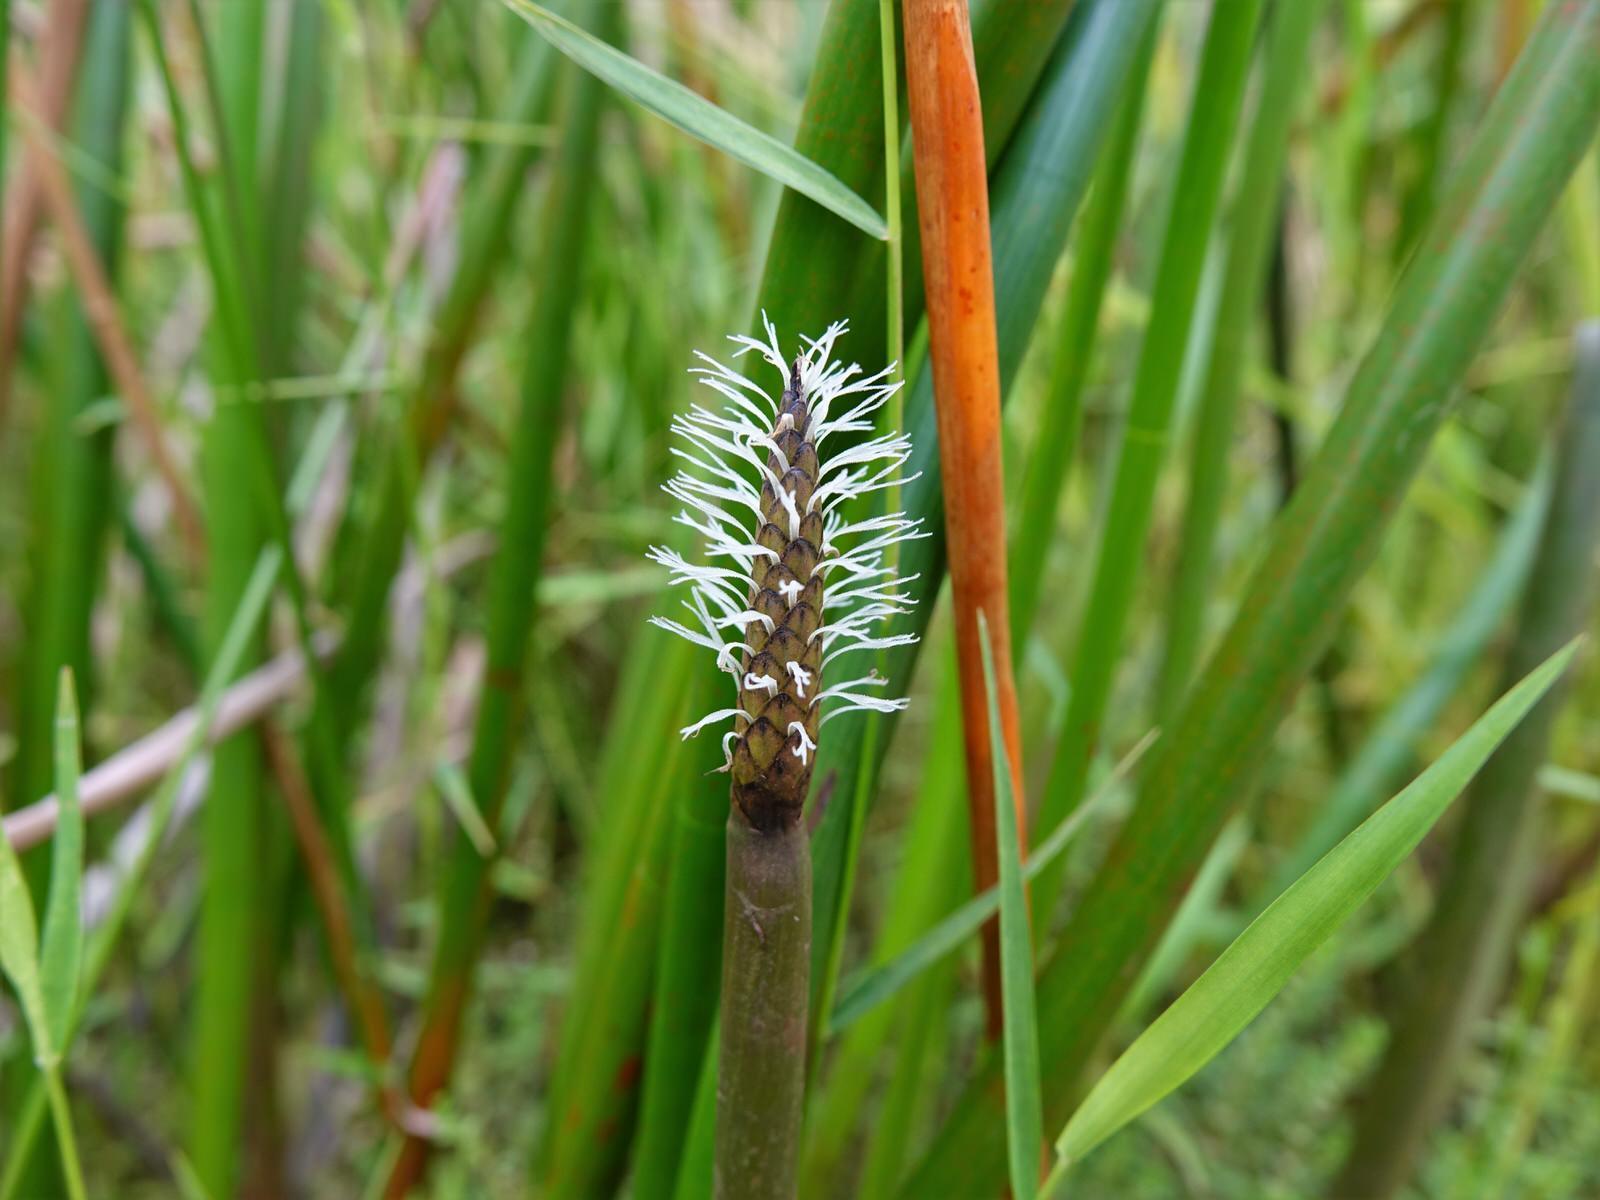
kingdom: Plantae
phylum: Tracheophyta
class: Liliopsida
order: Poales
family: Cyperaceae
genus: Eleocharis
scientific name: Eleocharis sphacelata
